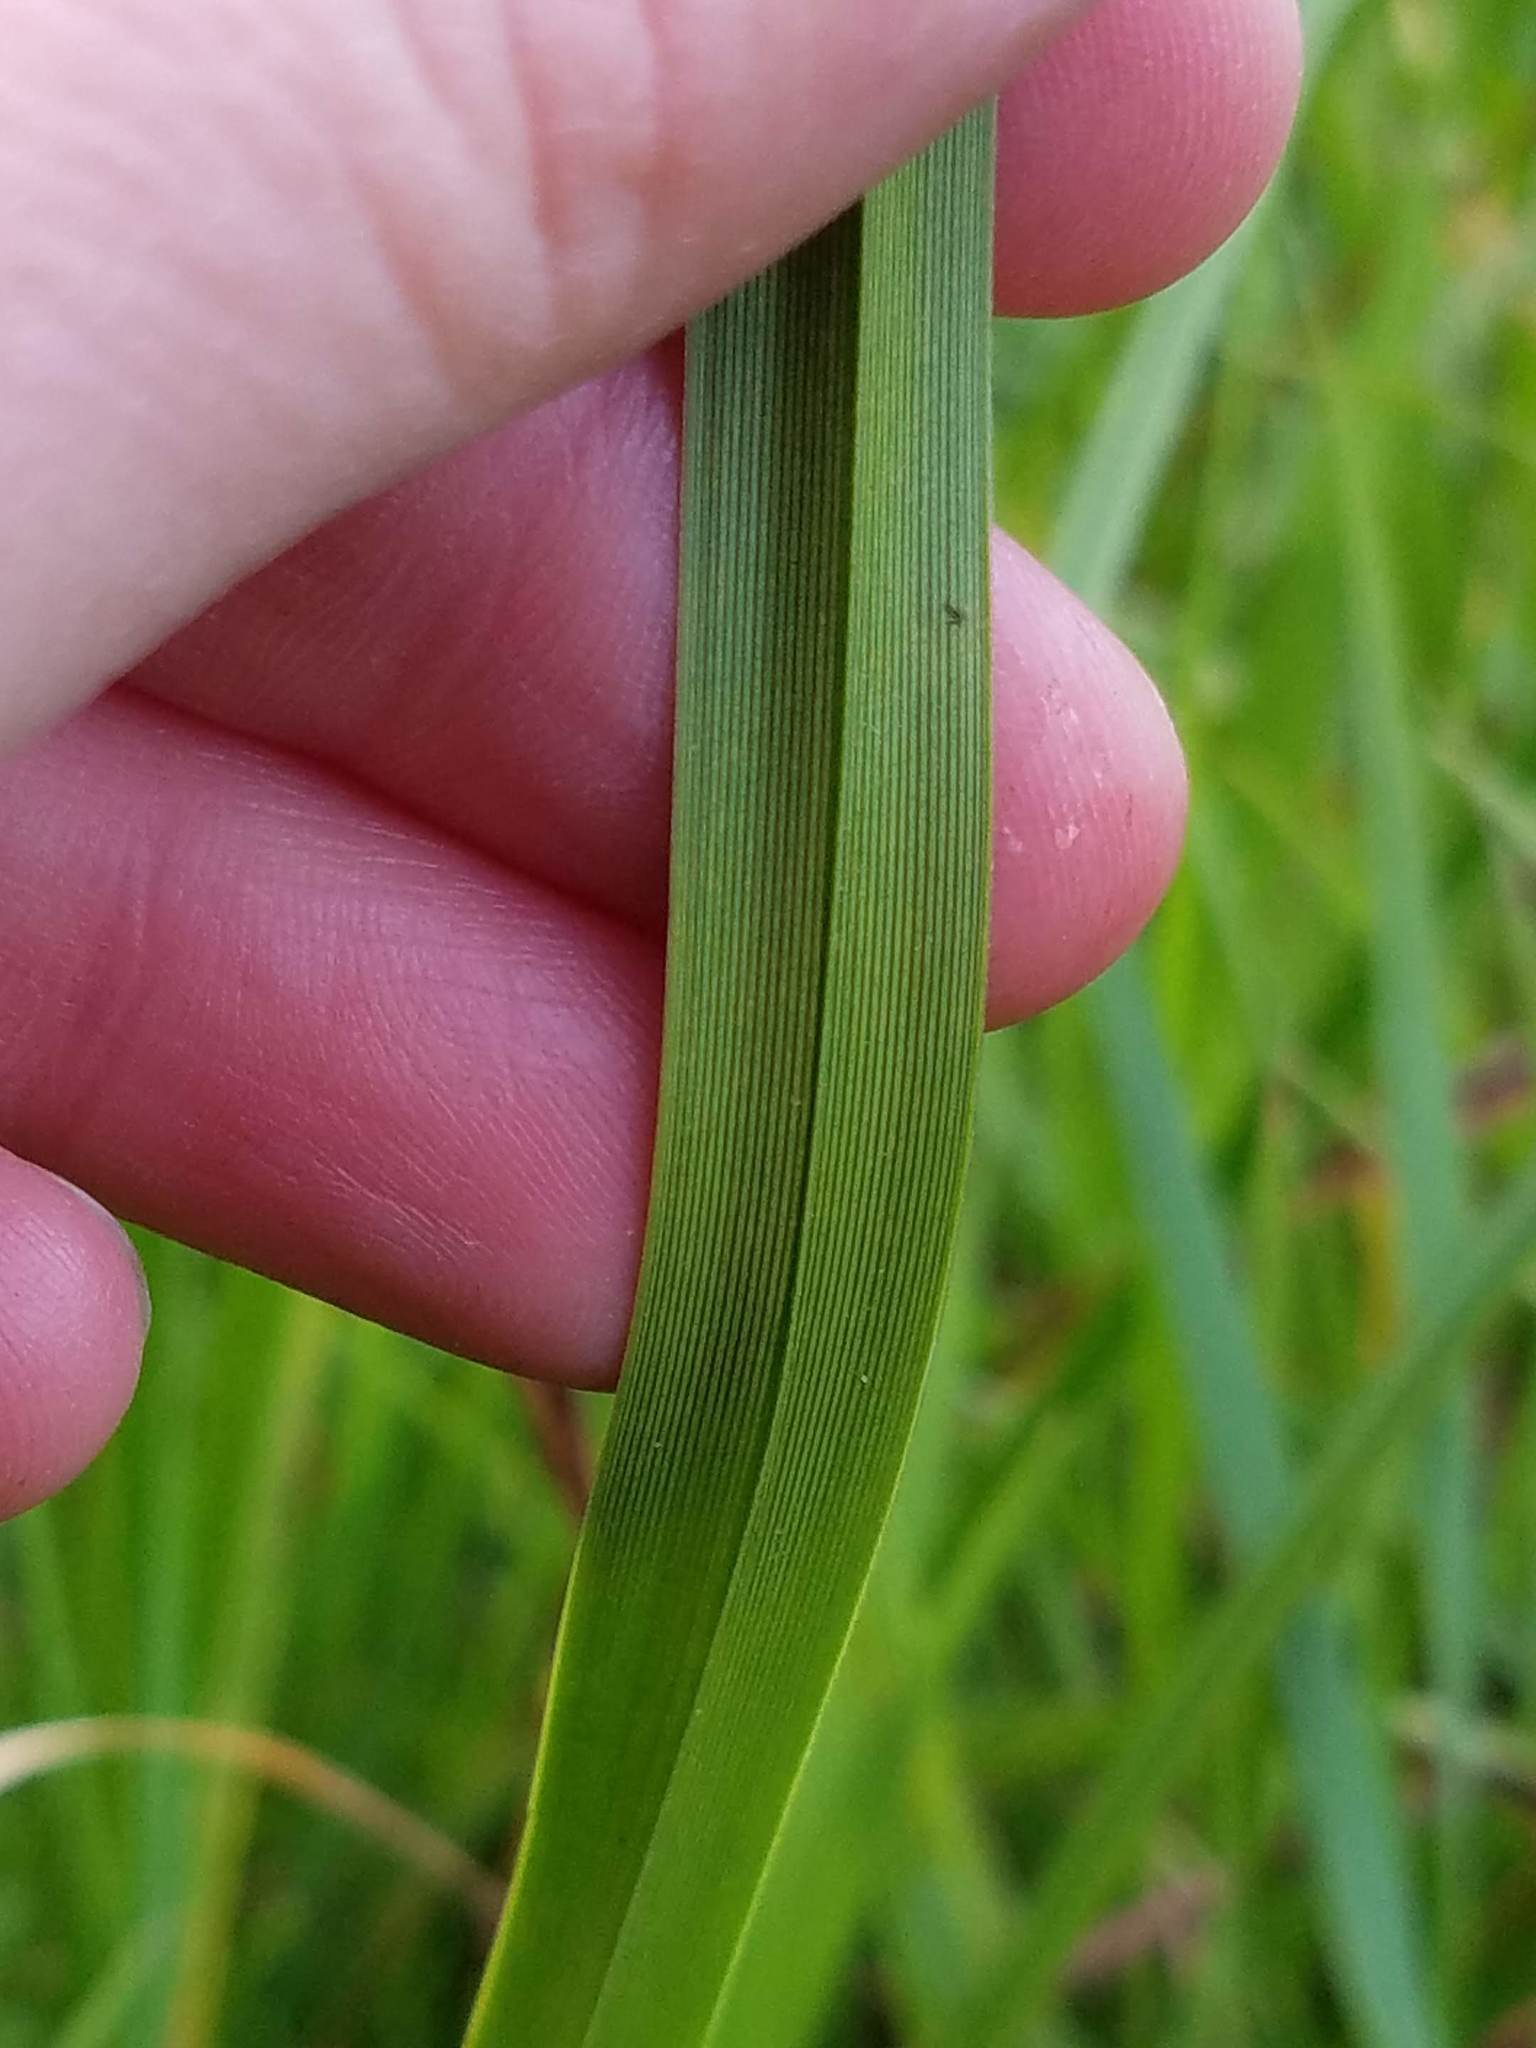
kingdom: Plantae
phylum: Tracheophyta
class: Liliopsida
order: Poales
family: Cyperaceae
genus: Carex
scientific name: Carex utriculata
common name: Beaked sedge
